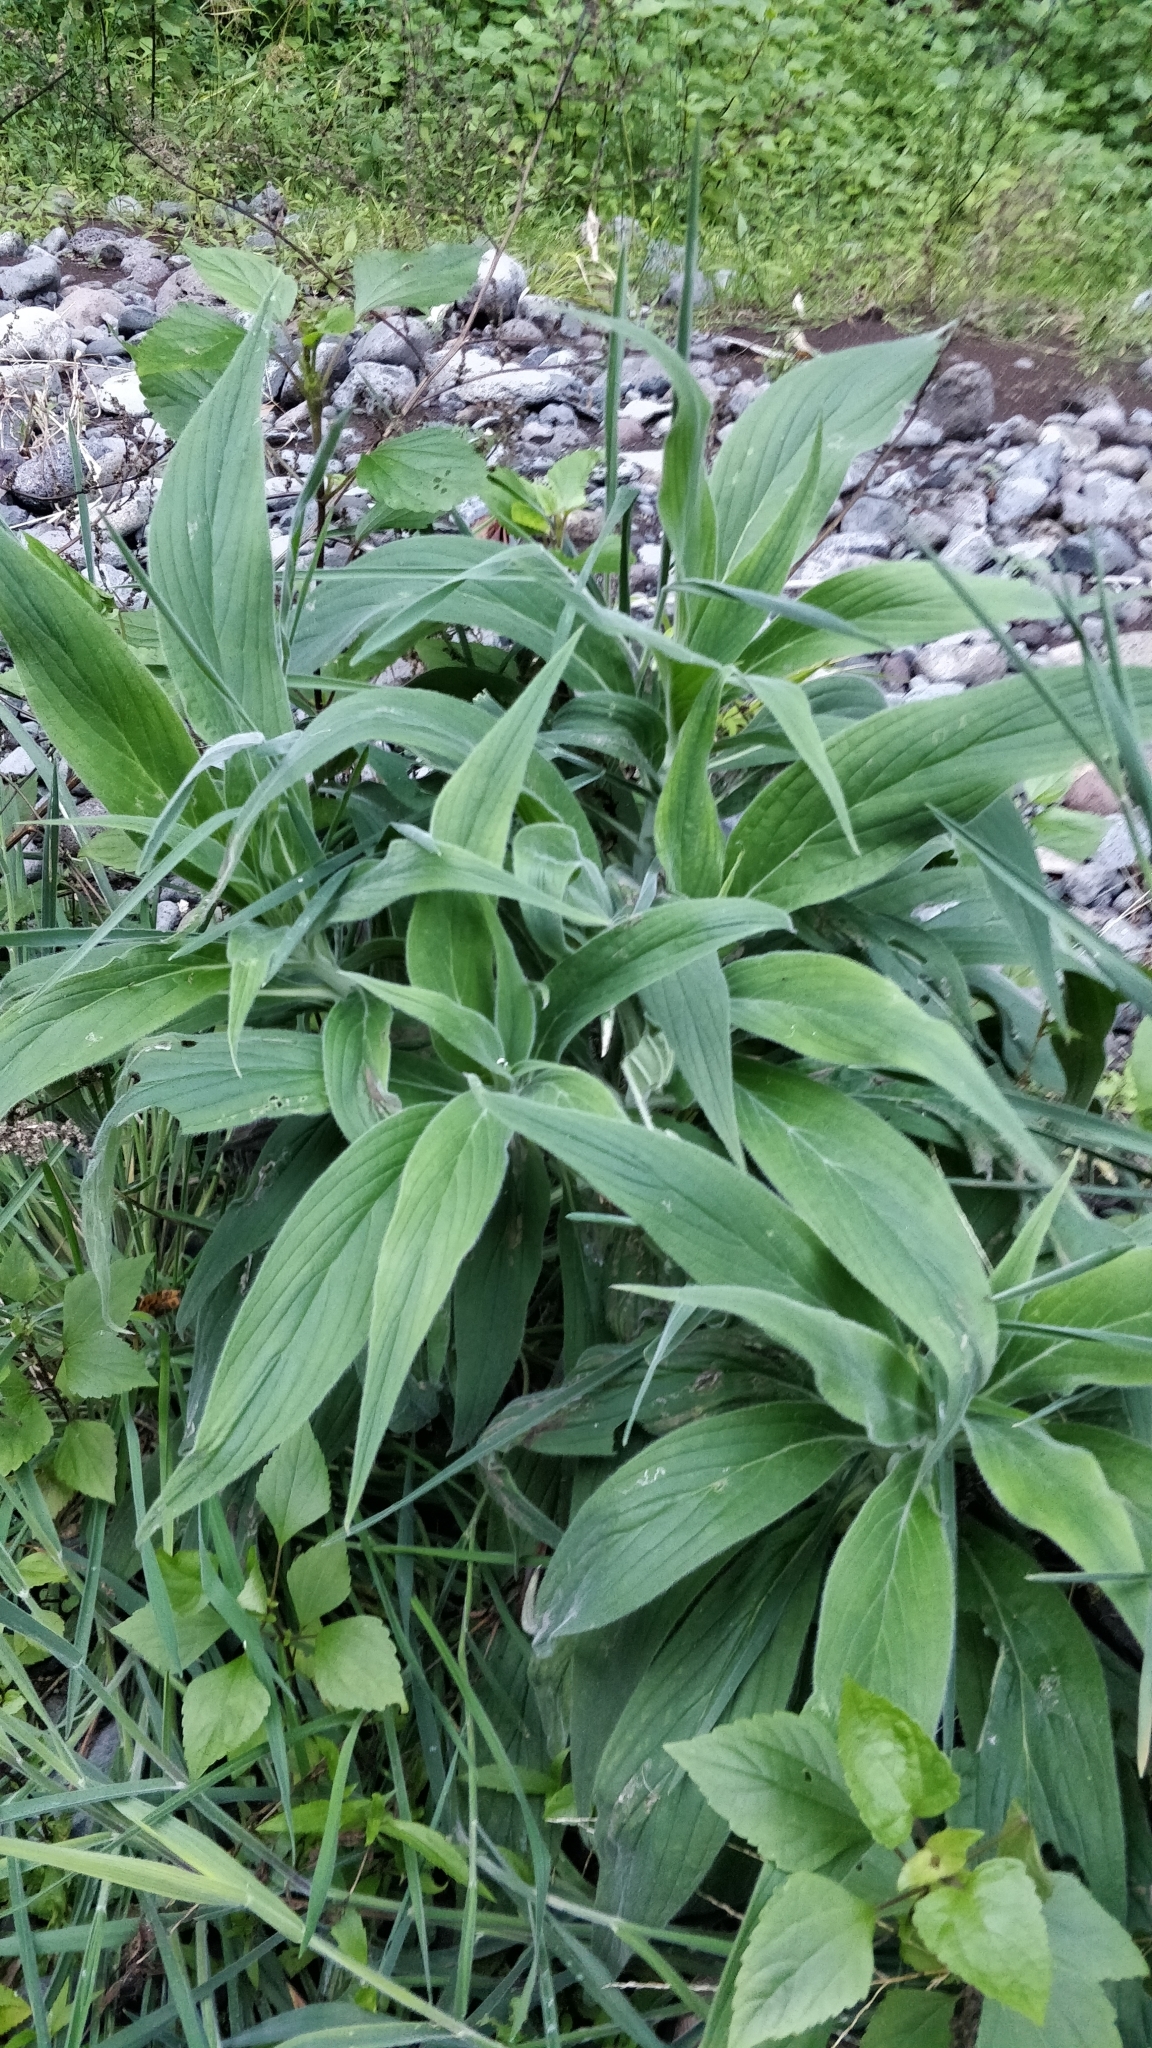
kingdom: Plantae
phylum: Tracheophyta
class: Magnoliopsida
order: Boraginales
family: Boraginaceae
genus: Echium
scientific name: Echium candicans
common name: Pride of madeira
